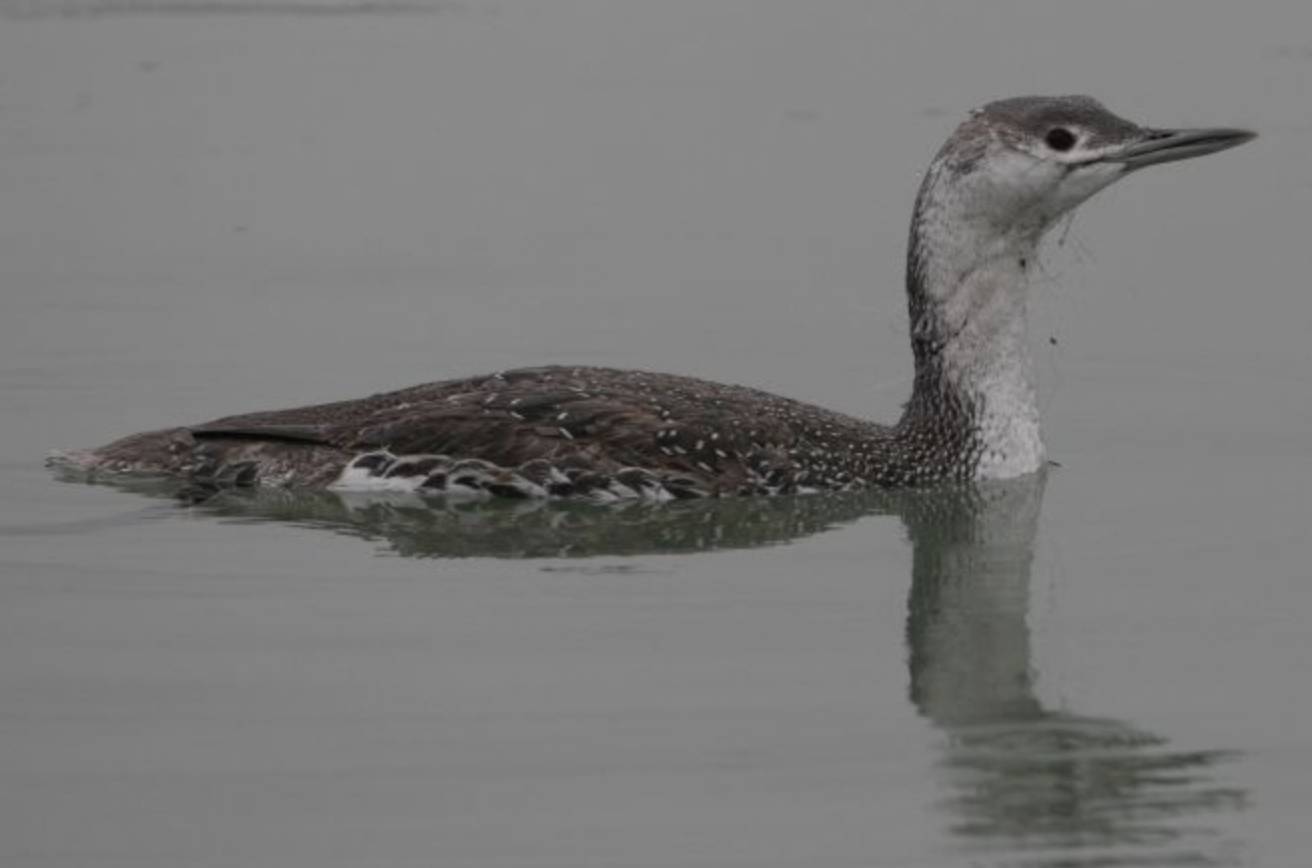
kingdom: Animalia
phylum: Chordata
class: Aves
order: Gaviiformes
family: Gaviidae
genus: Gavia
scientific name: Gavia stellata
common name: Red-throated loon
